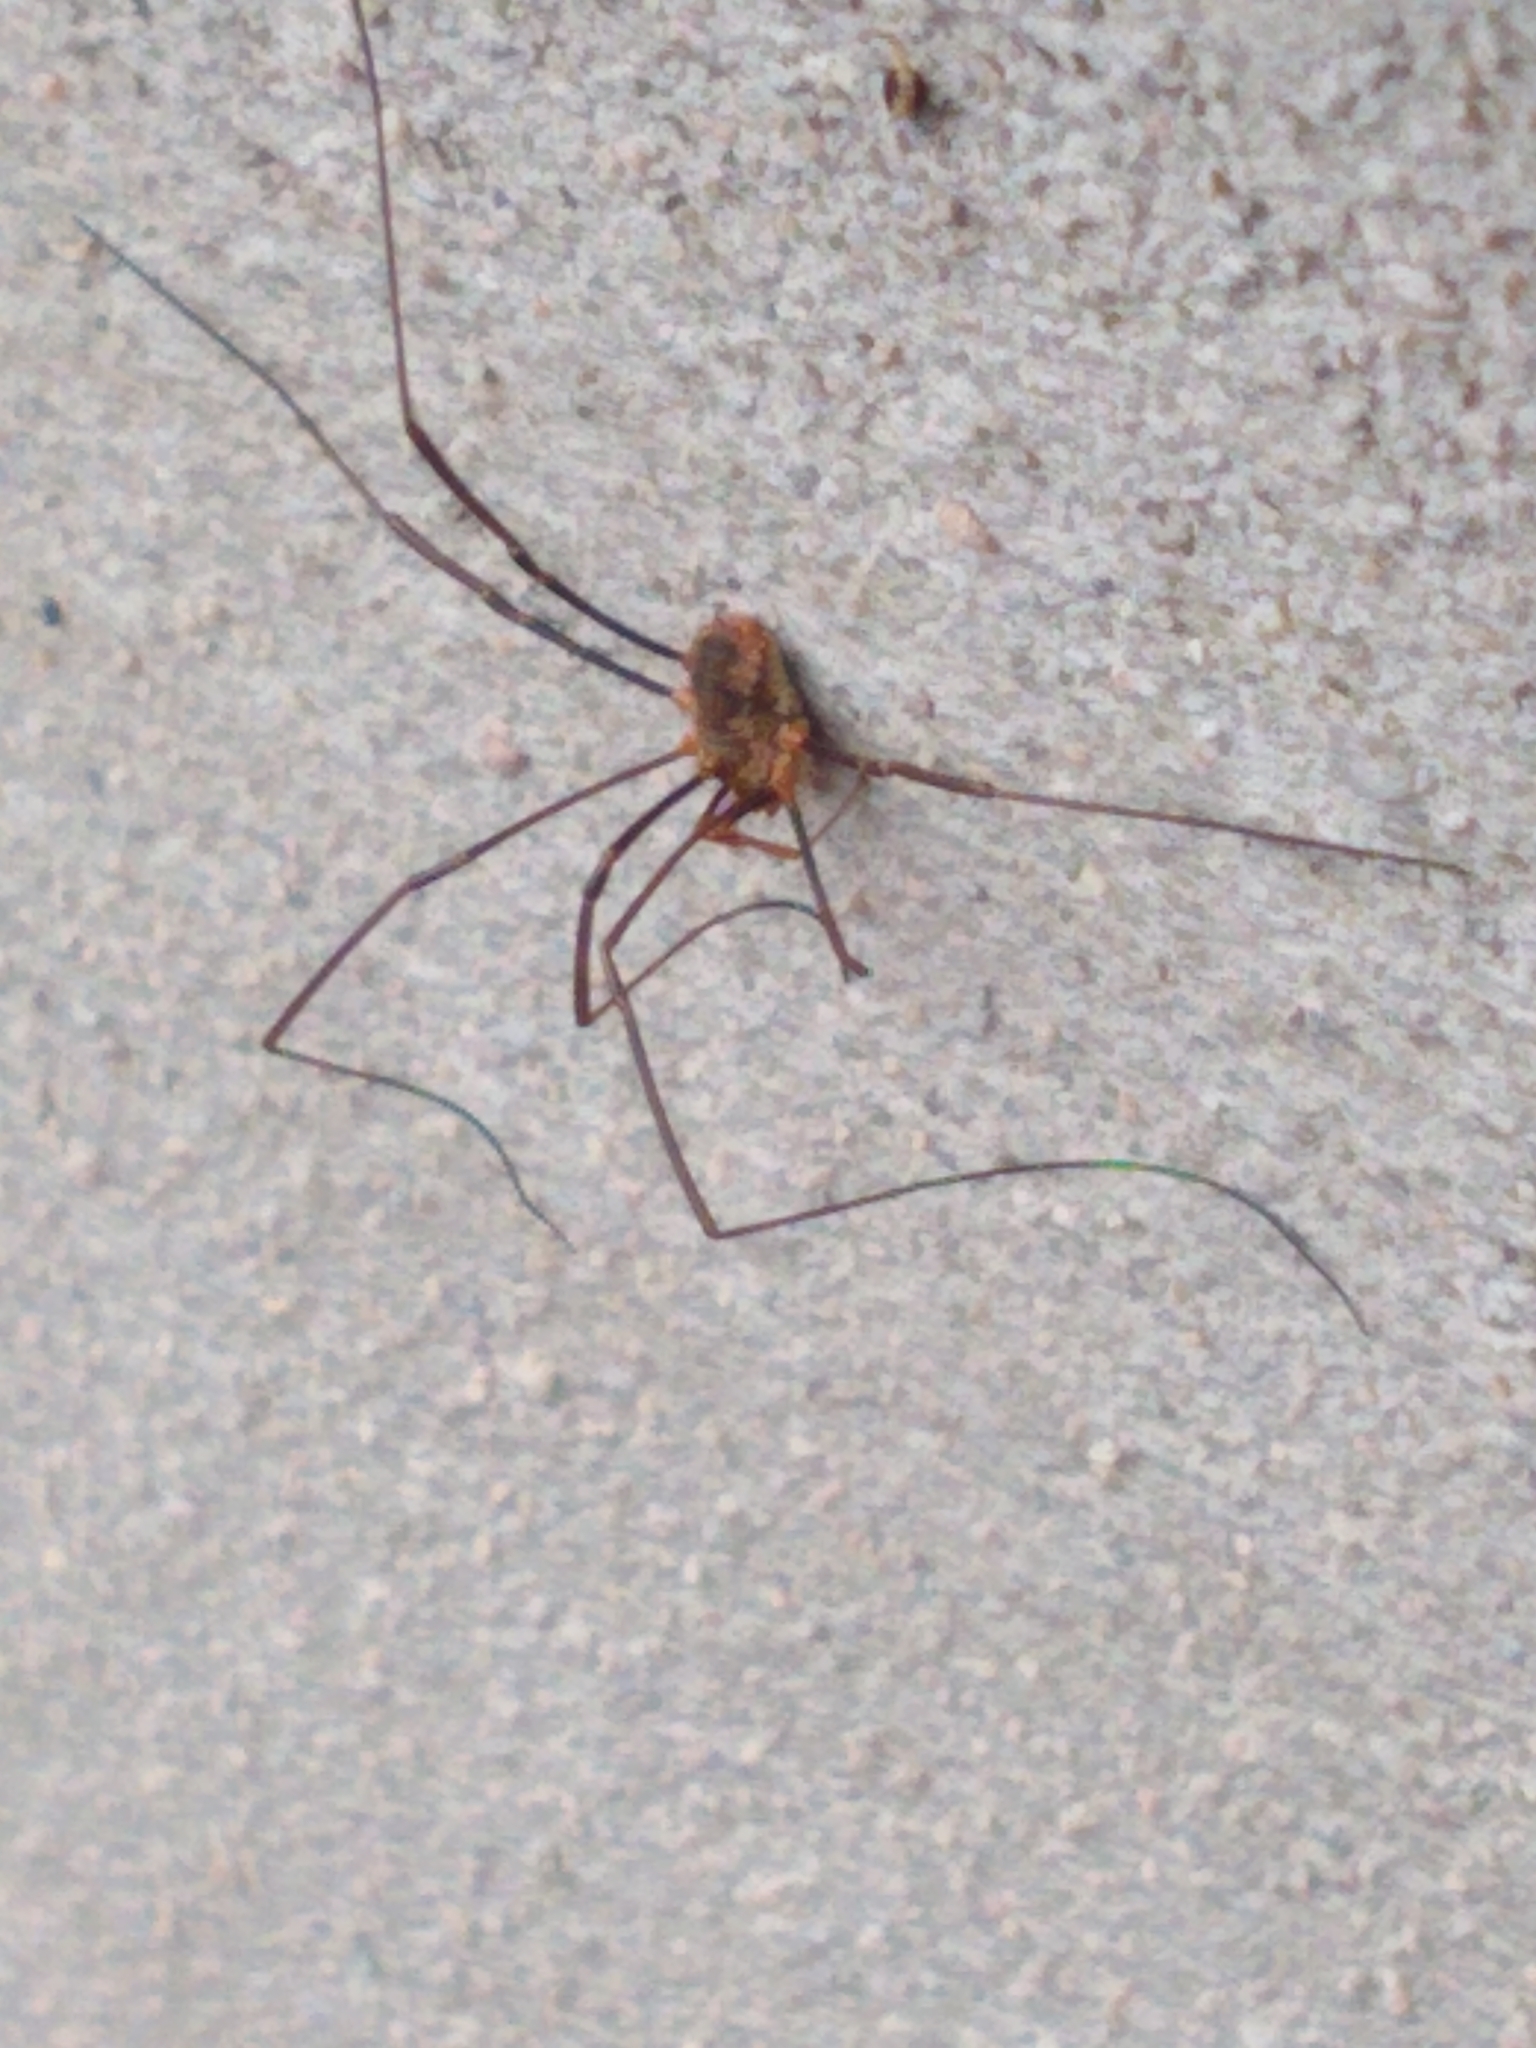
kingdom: Animalia
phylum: Arthropoda
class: Arachnida
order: Opiliones
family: Phalangiidae
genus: Phalangium
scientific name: Phalangium opilio
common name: Daddy longleg
